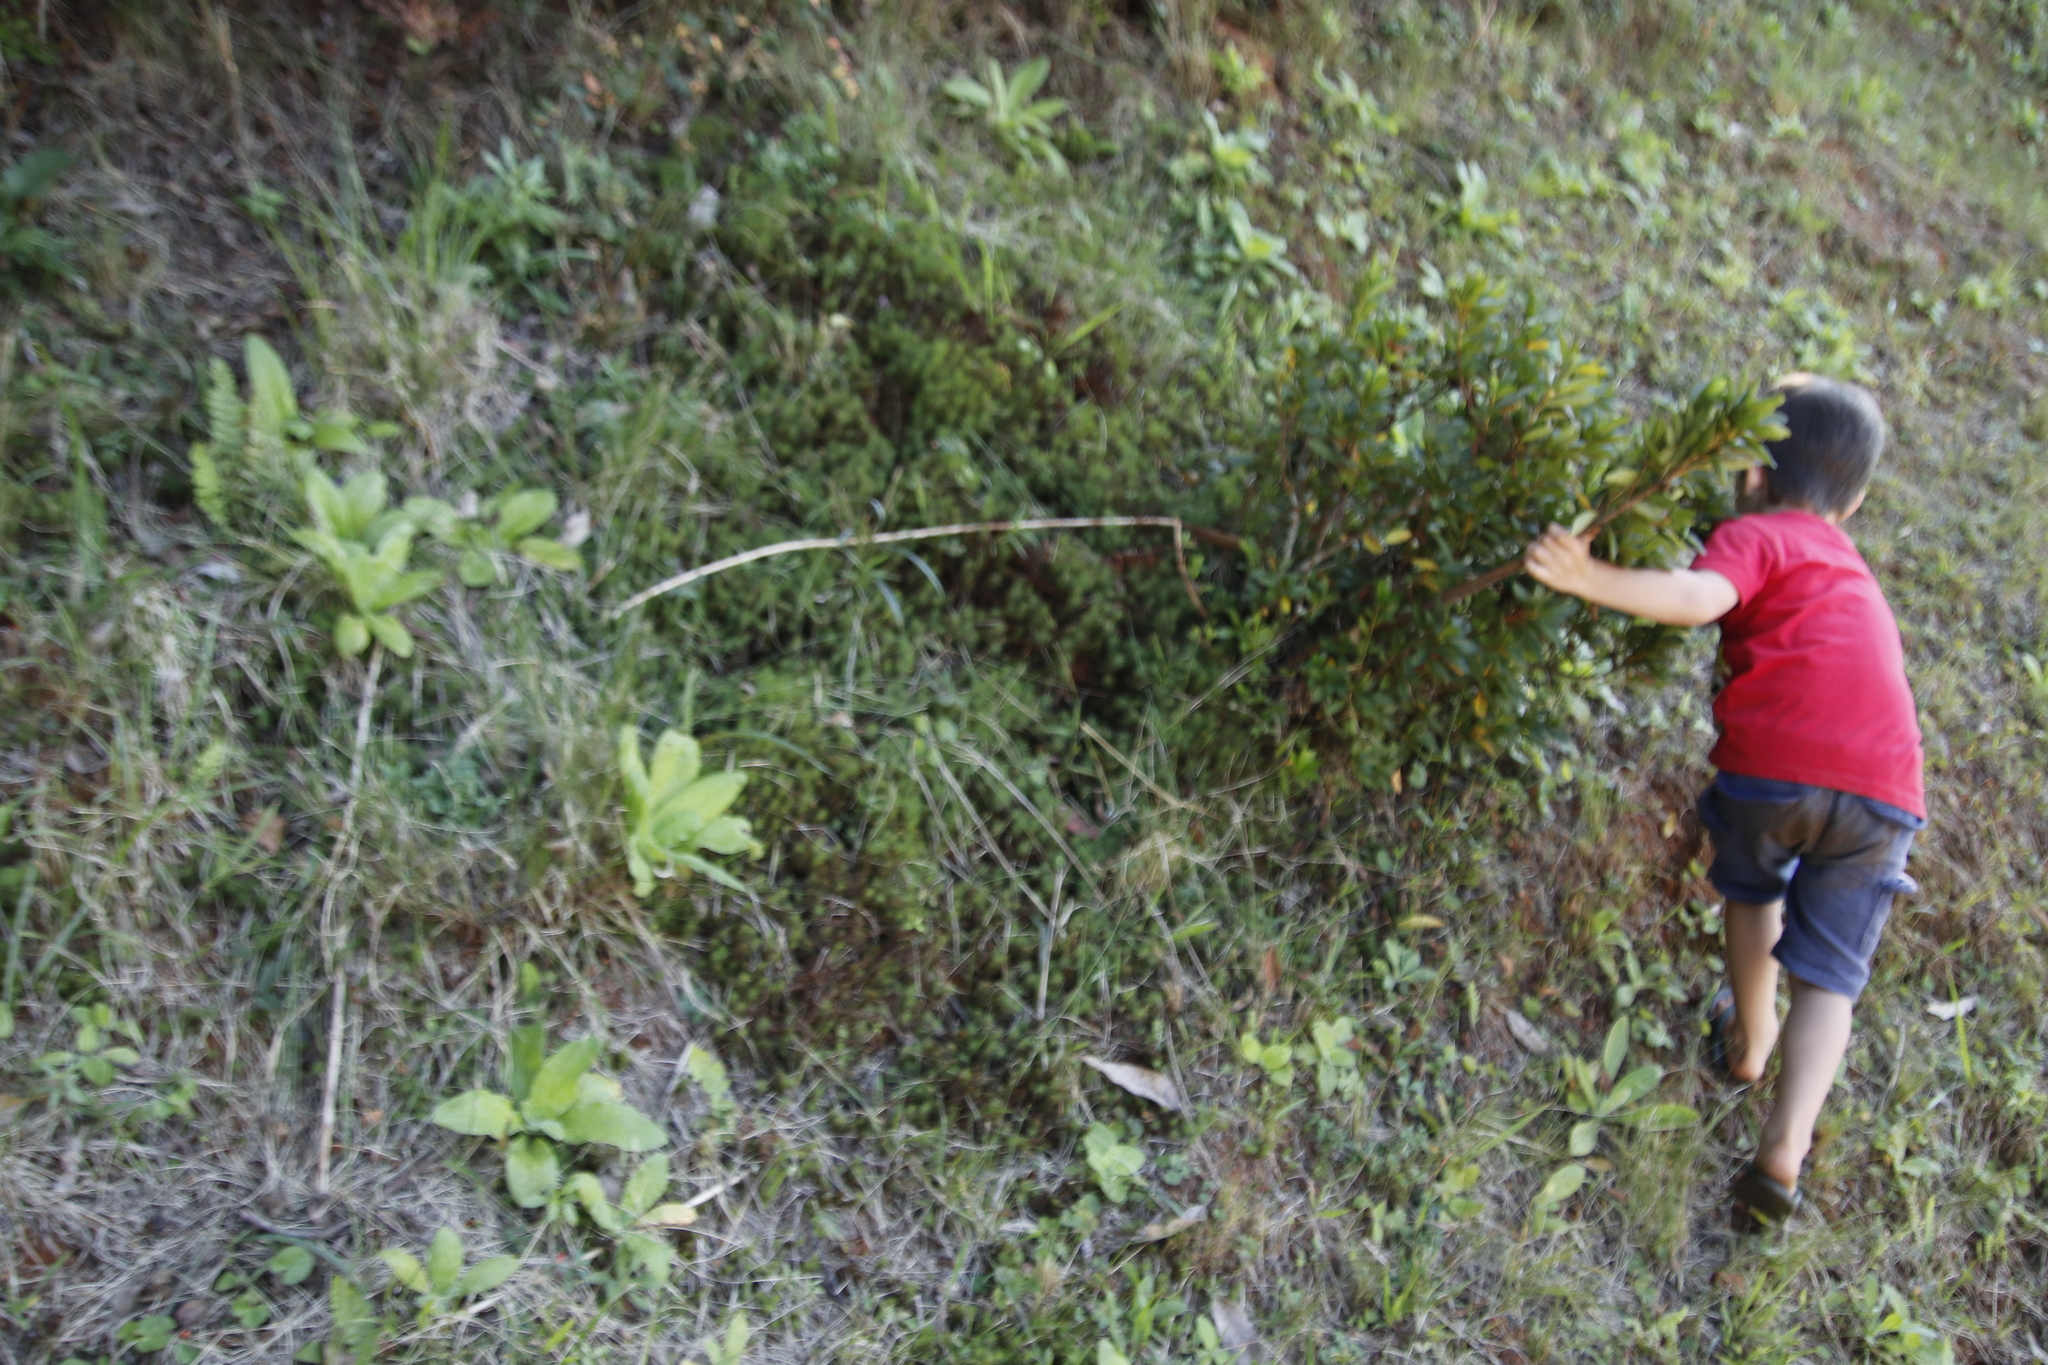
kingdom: Plantae
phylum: Bryophyta
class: Polytrichopsida
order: Polytrichales
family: Polytrichaceae
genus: Polytrichum
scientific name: Polytrichum subpilosum
